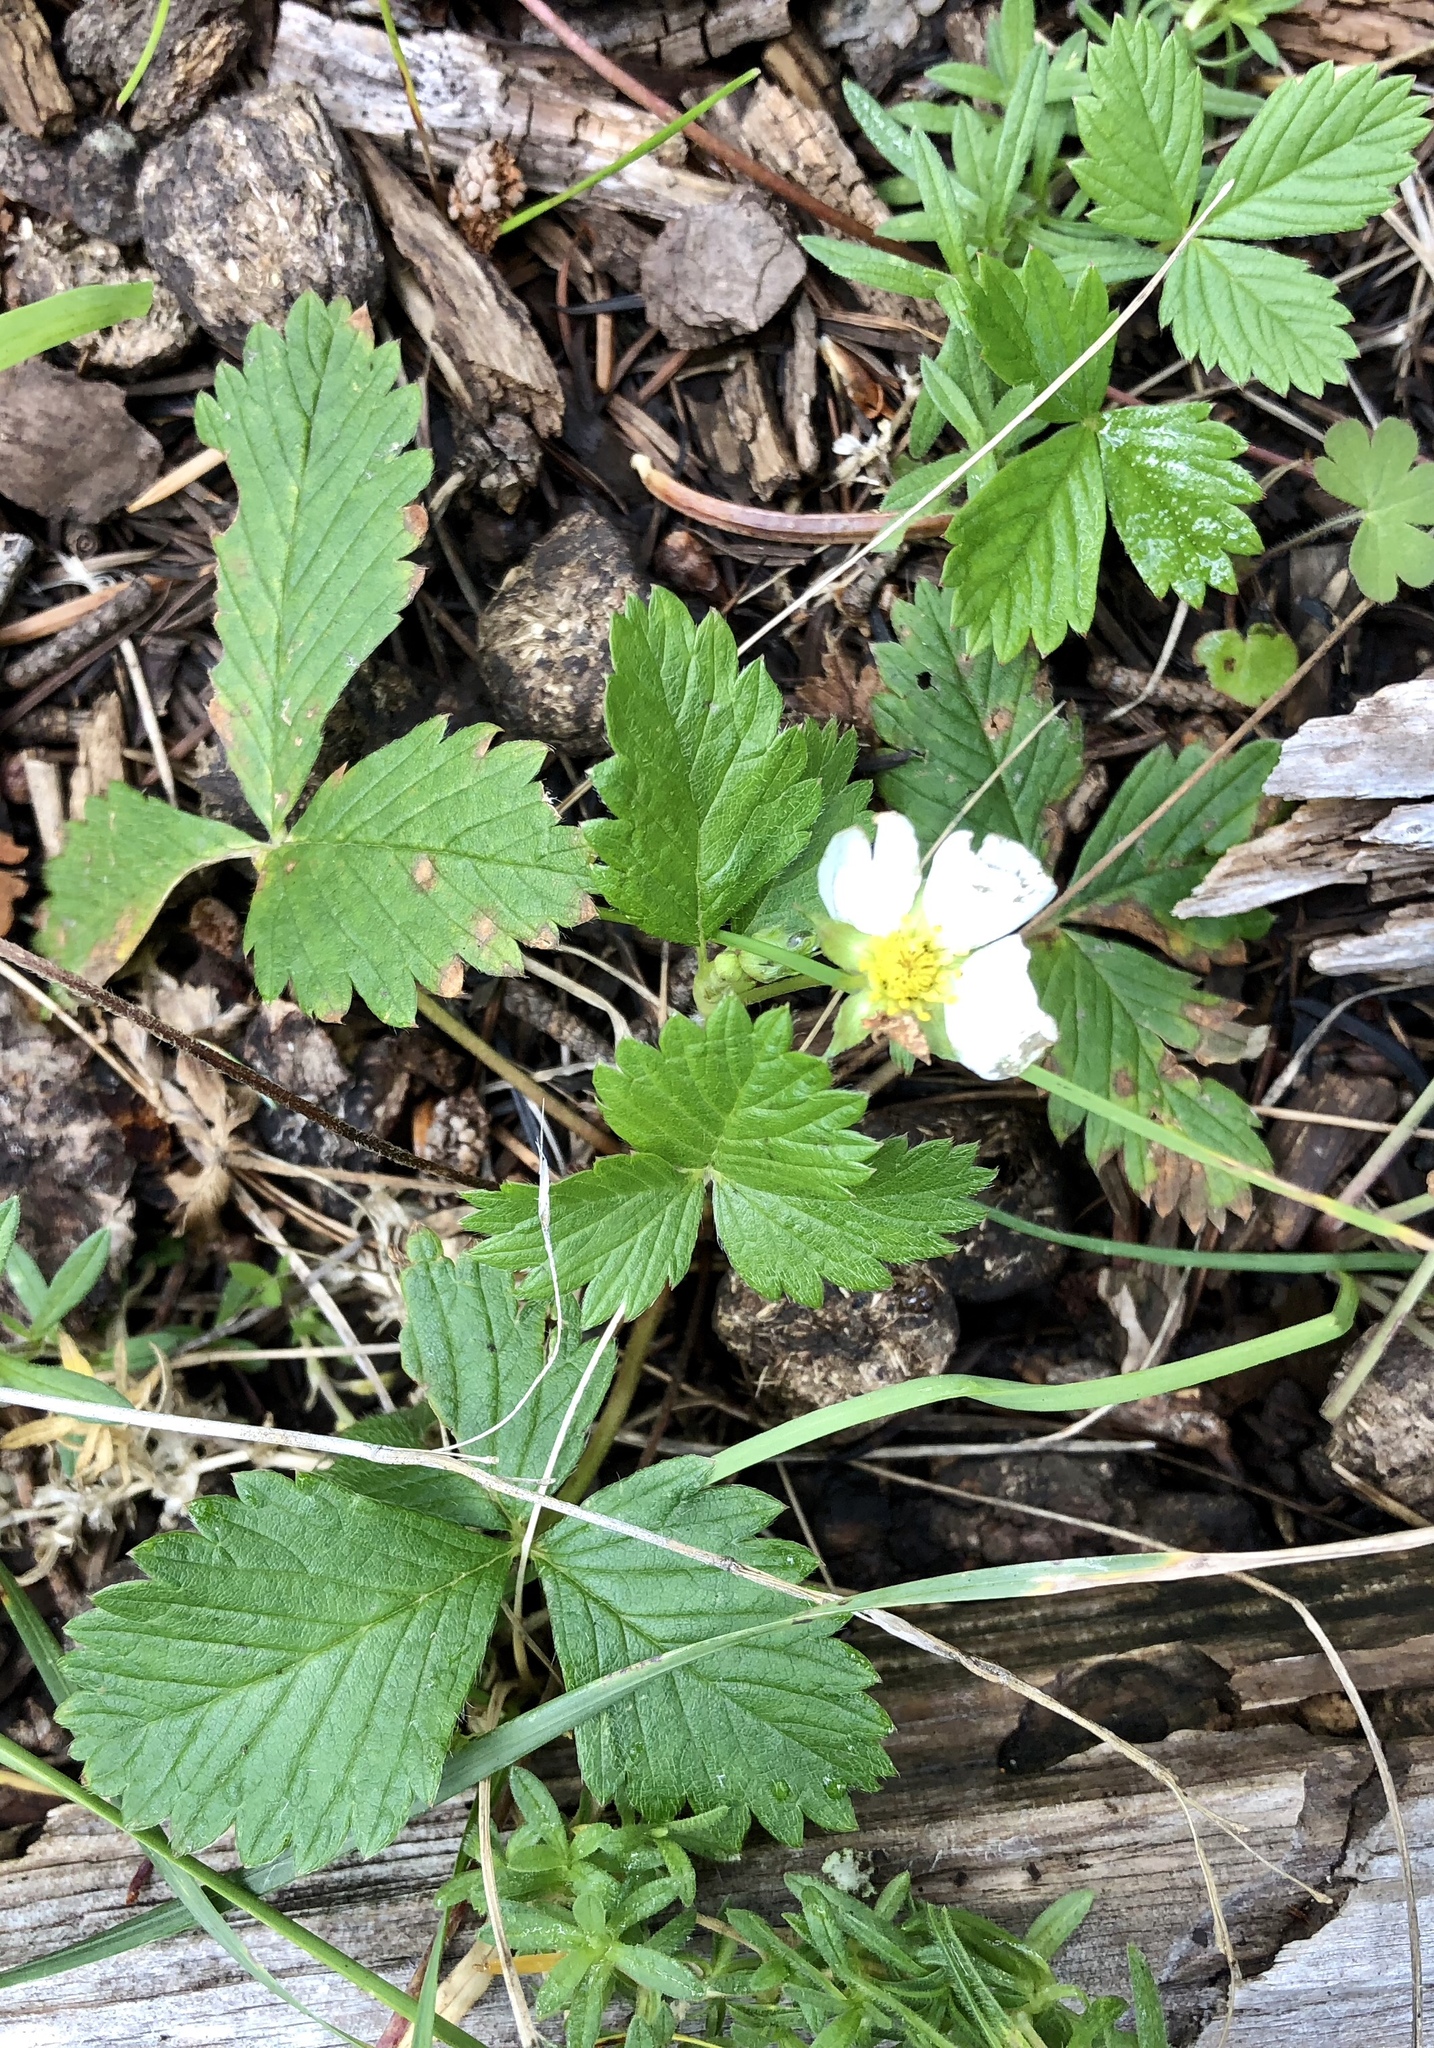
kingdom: Plantae
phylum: Tracheophyta
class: Magnoliopsida
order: Rosales
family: Rosaceae
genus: Fragaria
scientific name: Fragaria vesca
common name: Wild strawberry
